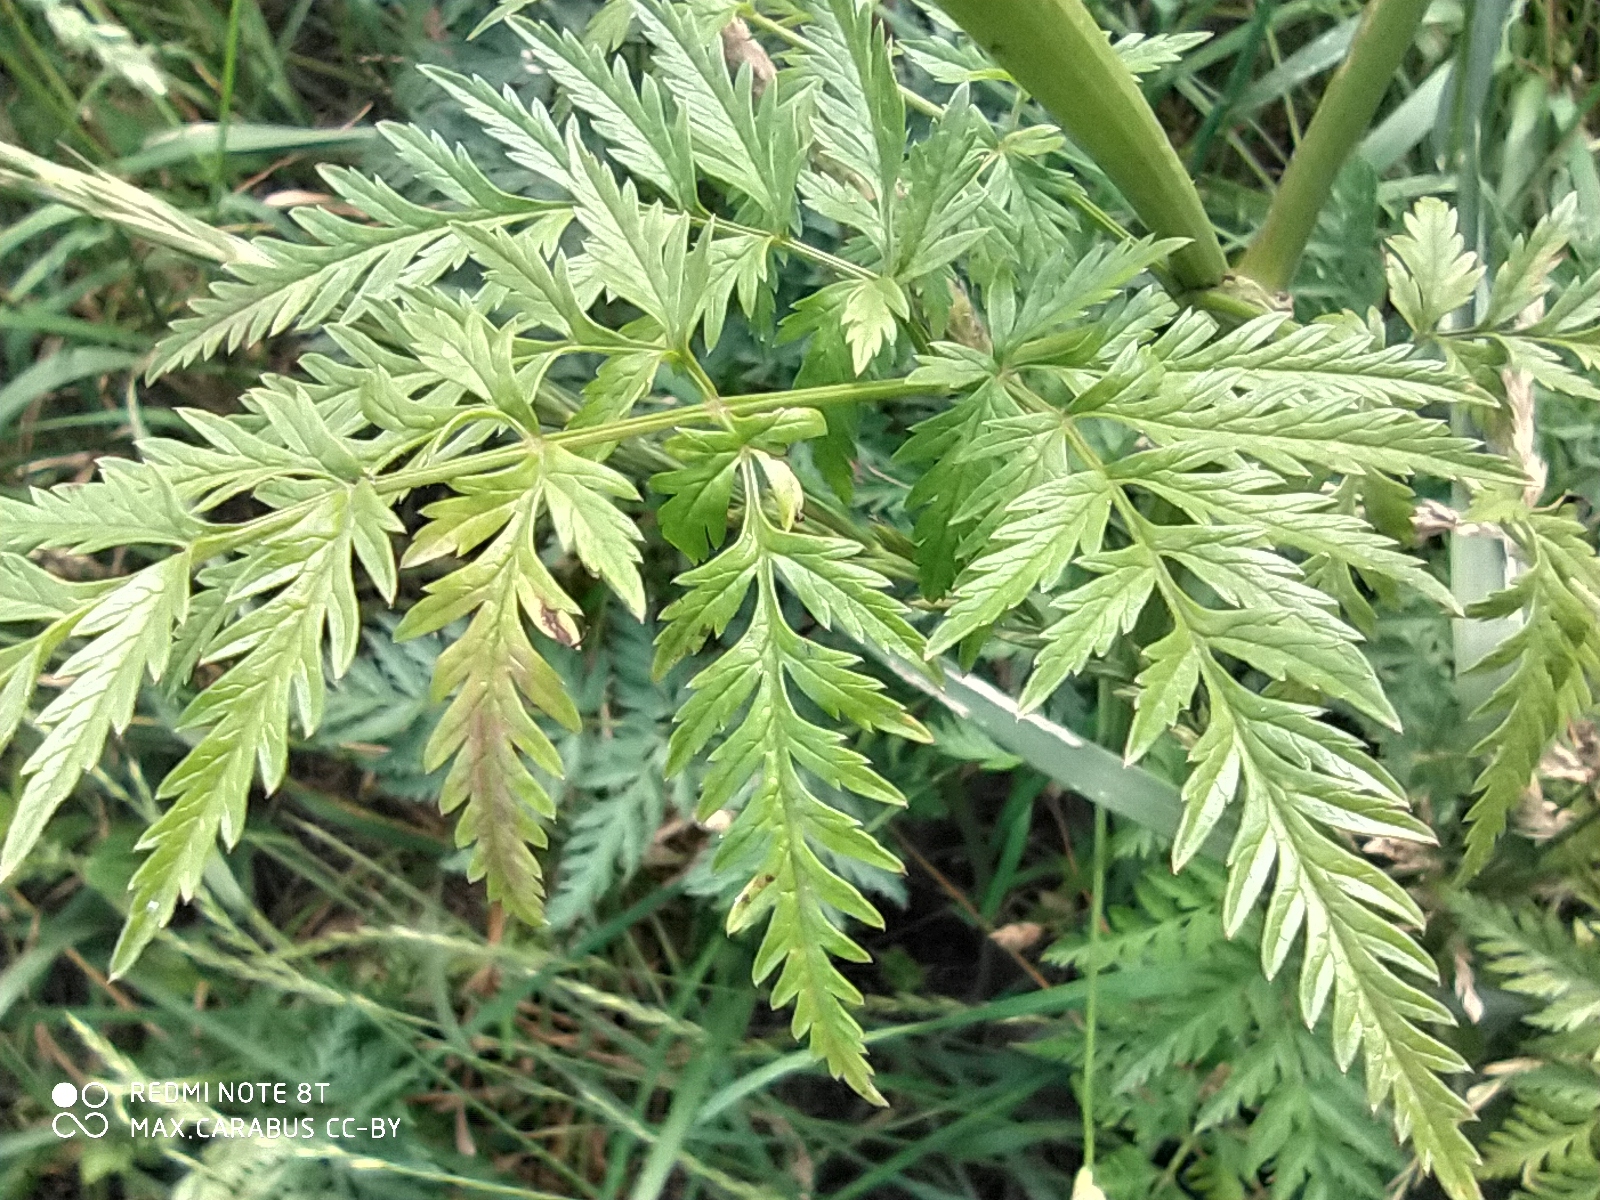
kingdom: Plantae
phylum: Tracheophyta
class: Magnoliopsida
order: Apiales
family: Apiaceae
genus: Anthriscus
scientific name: Anthriscus sylvestris
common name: Cow parsley
